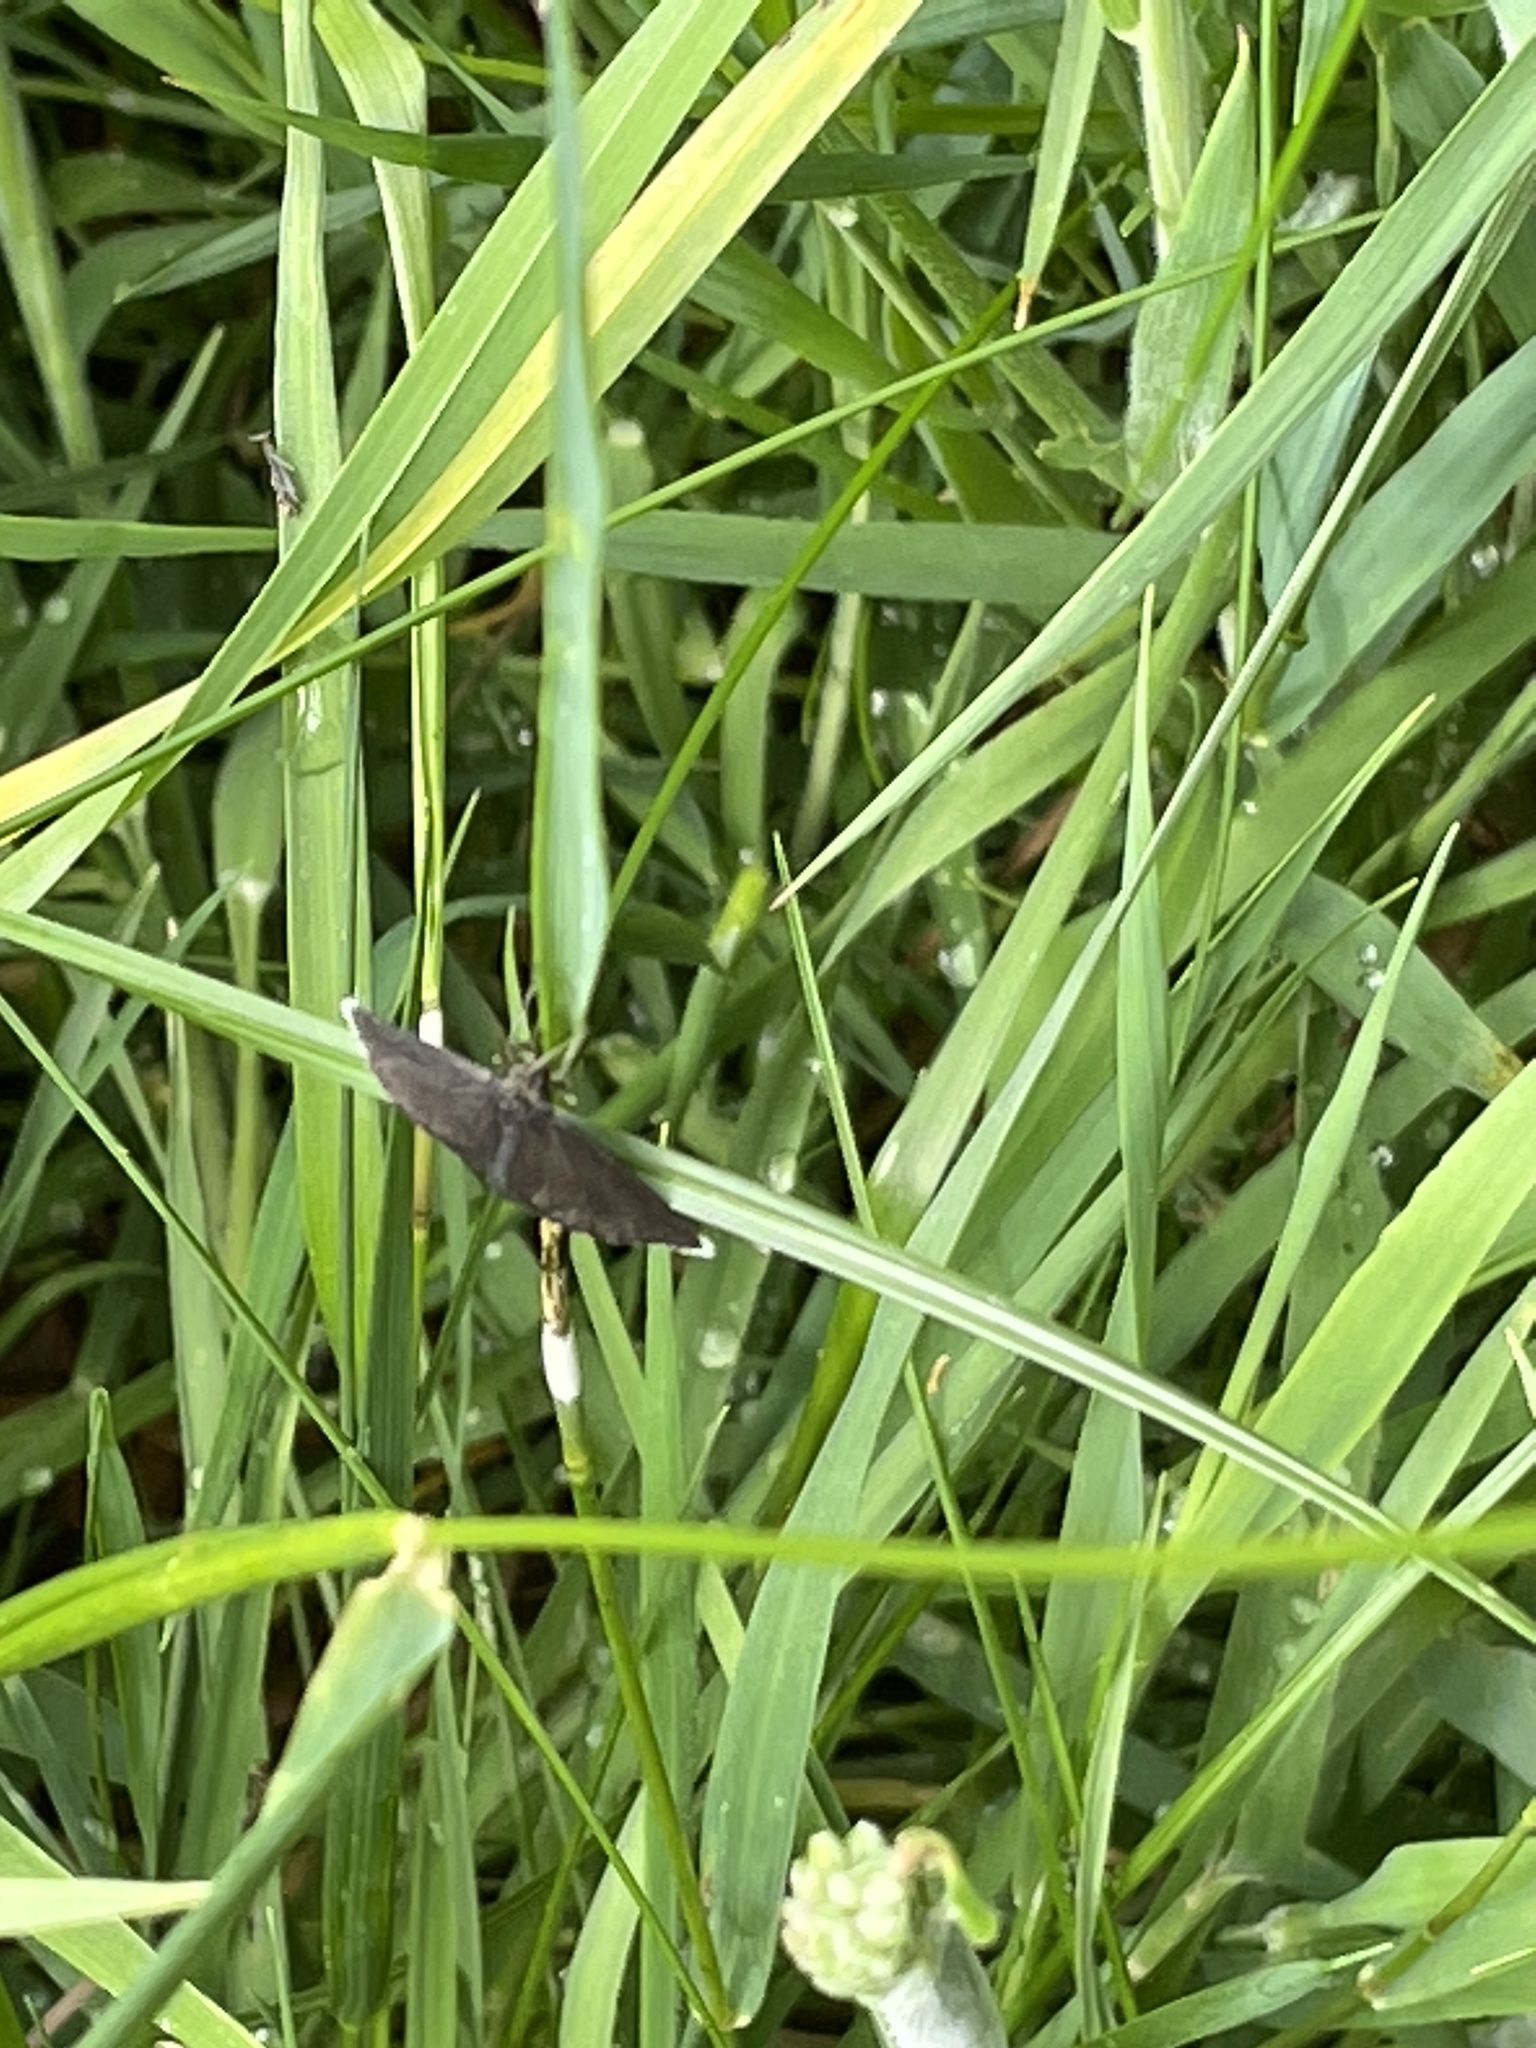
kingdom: Animalia
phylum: Arthropoda
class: Insecta
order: Lepidoptera
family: Geometridae
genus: Odezia
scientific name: Odezia atrata
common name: Chimney sweeper
